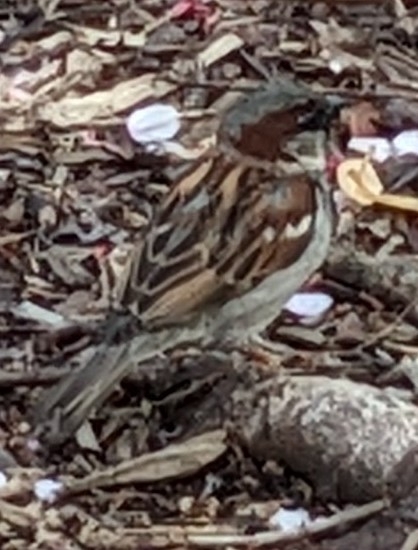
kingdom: Animalia
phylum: Chordata
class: Aves
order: Passeriformes
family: Passeridae
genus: Passer
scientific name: Passer domesticus
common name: House sparrow
